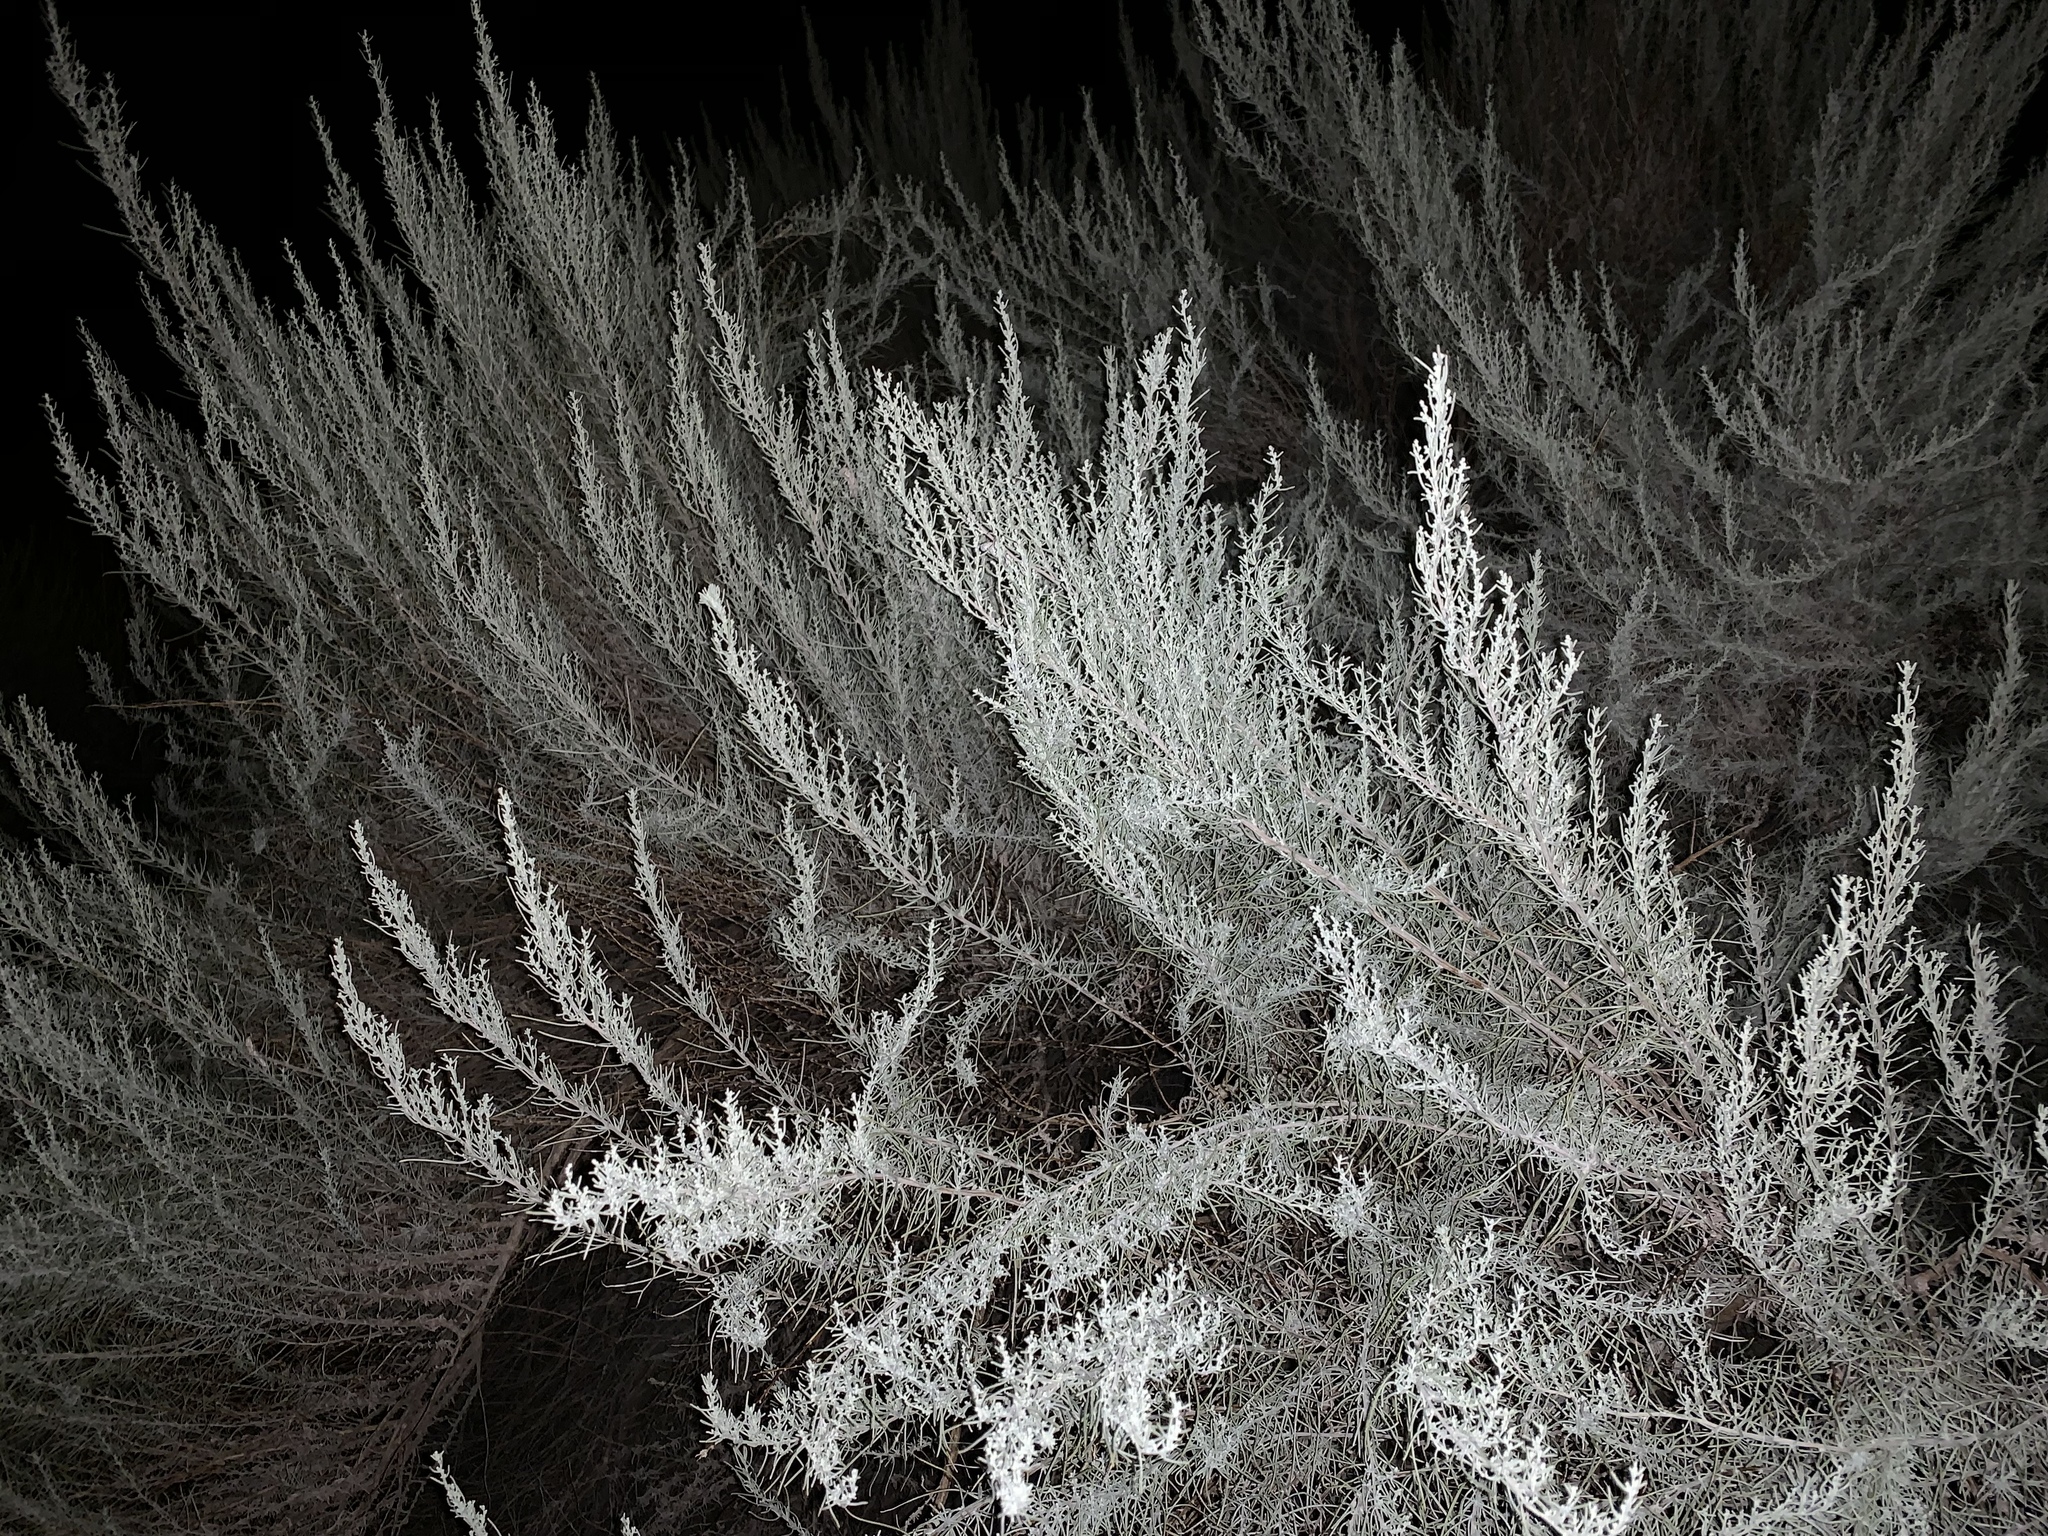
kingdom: Plantae
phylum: Tracheophyta
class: Magnoliopsida
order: Asterales
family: Asteraceae
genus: Artemisia
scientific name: Artemisia filifolia
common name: Sand-sage
